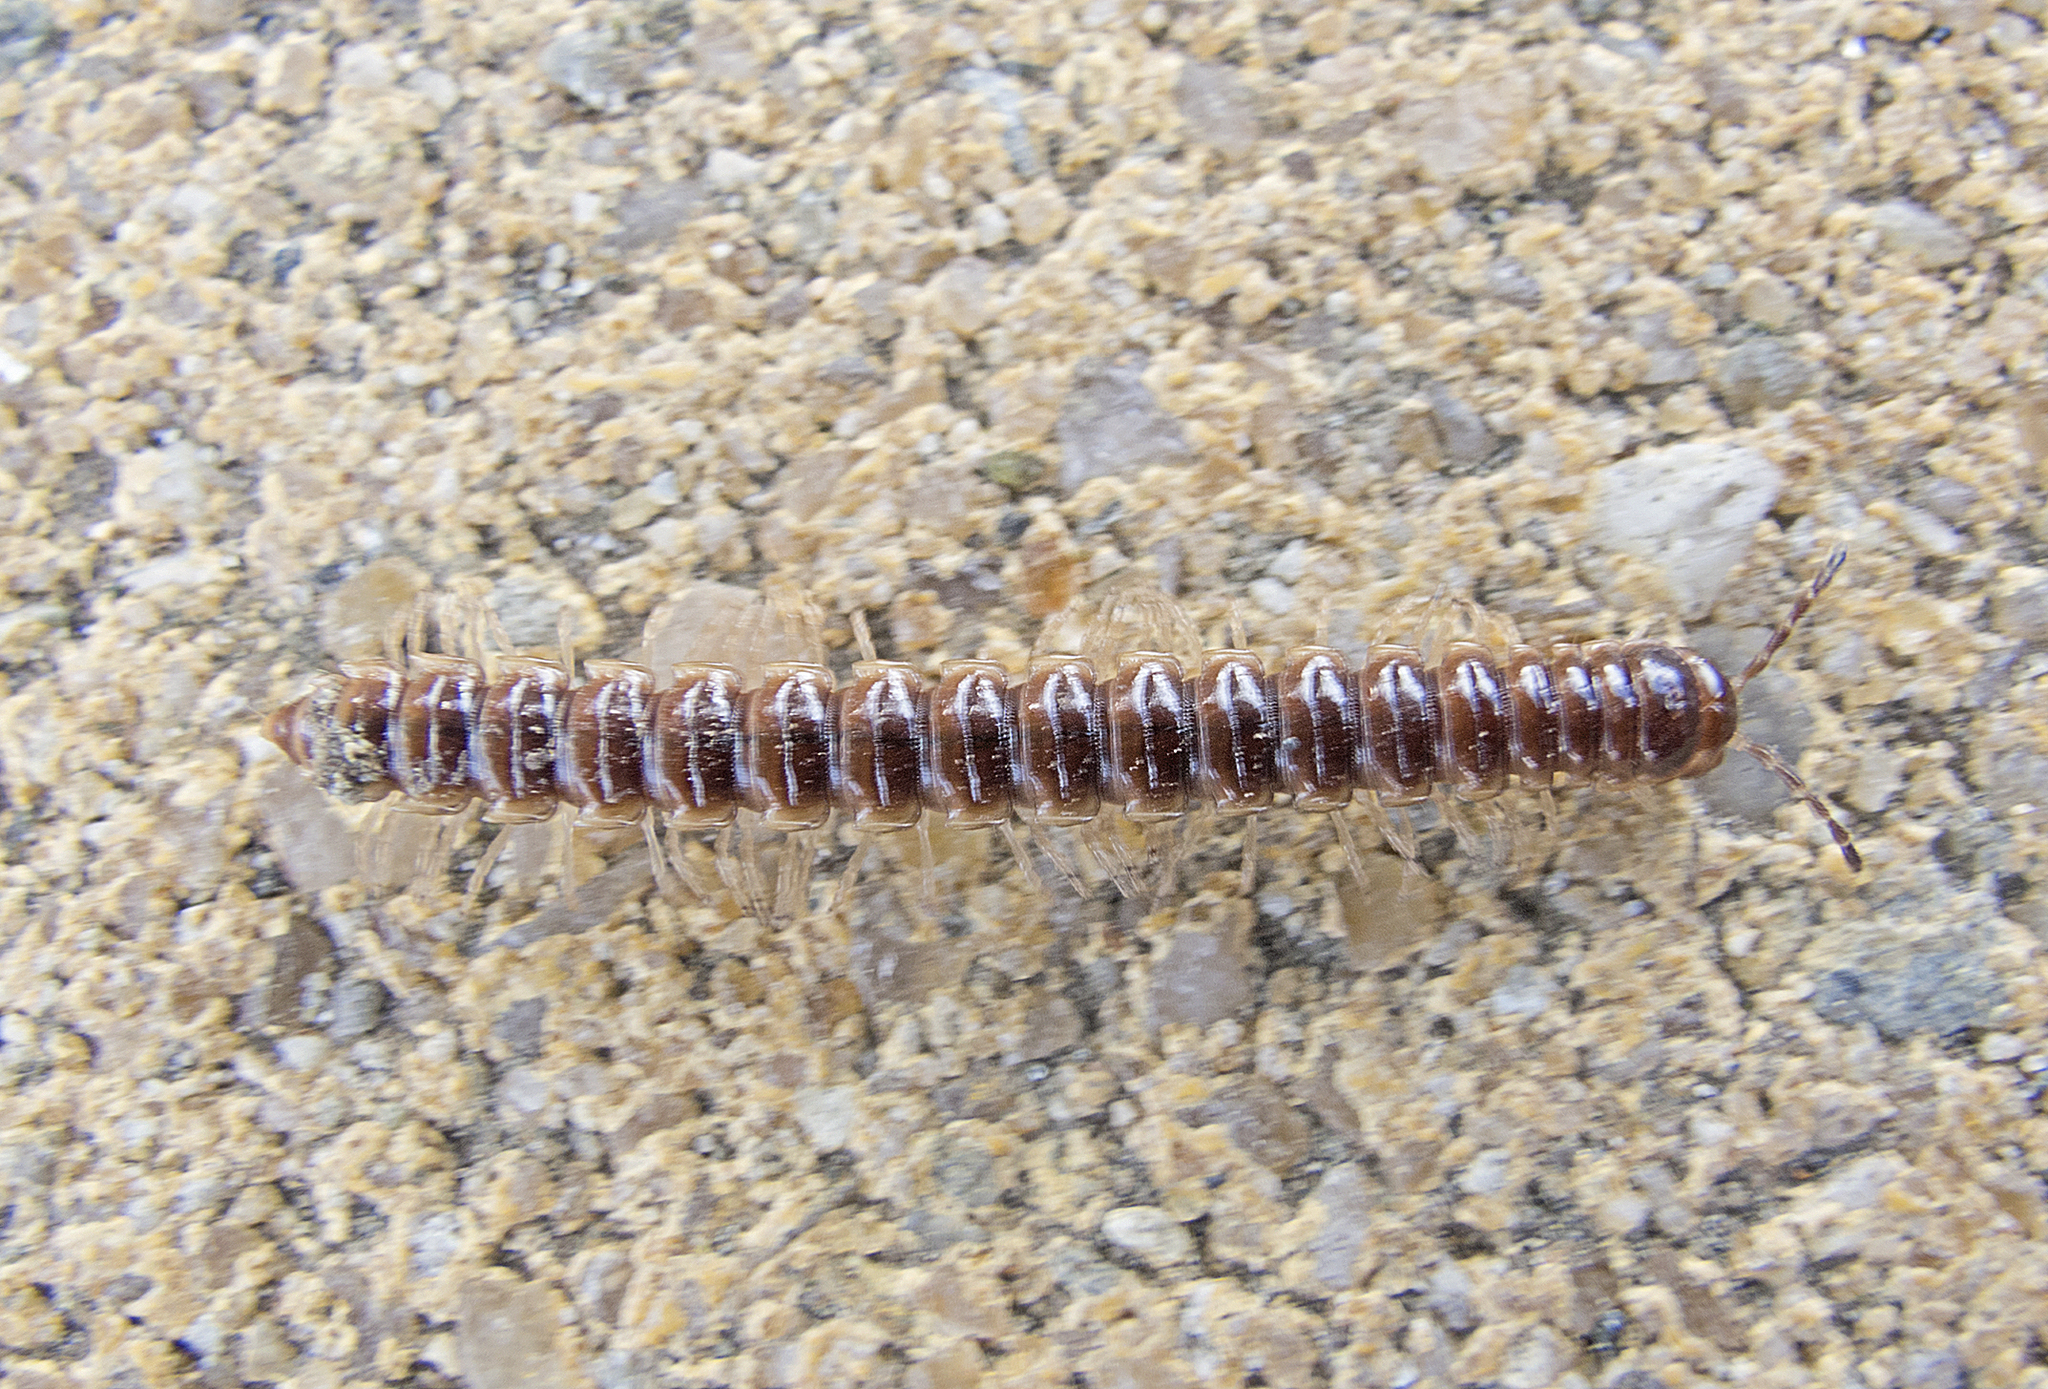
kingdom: Animalia
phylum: Arthropoda
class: Diplopoda
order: Polydesmida
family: Paradoxosomatidae
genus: Oxidus
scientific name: Oxidus gracilis
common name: Greenhouse millipede
